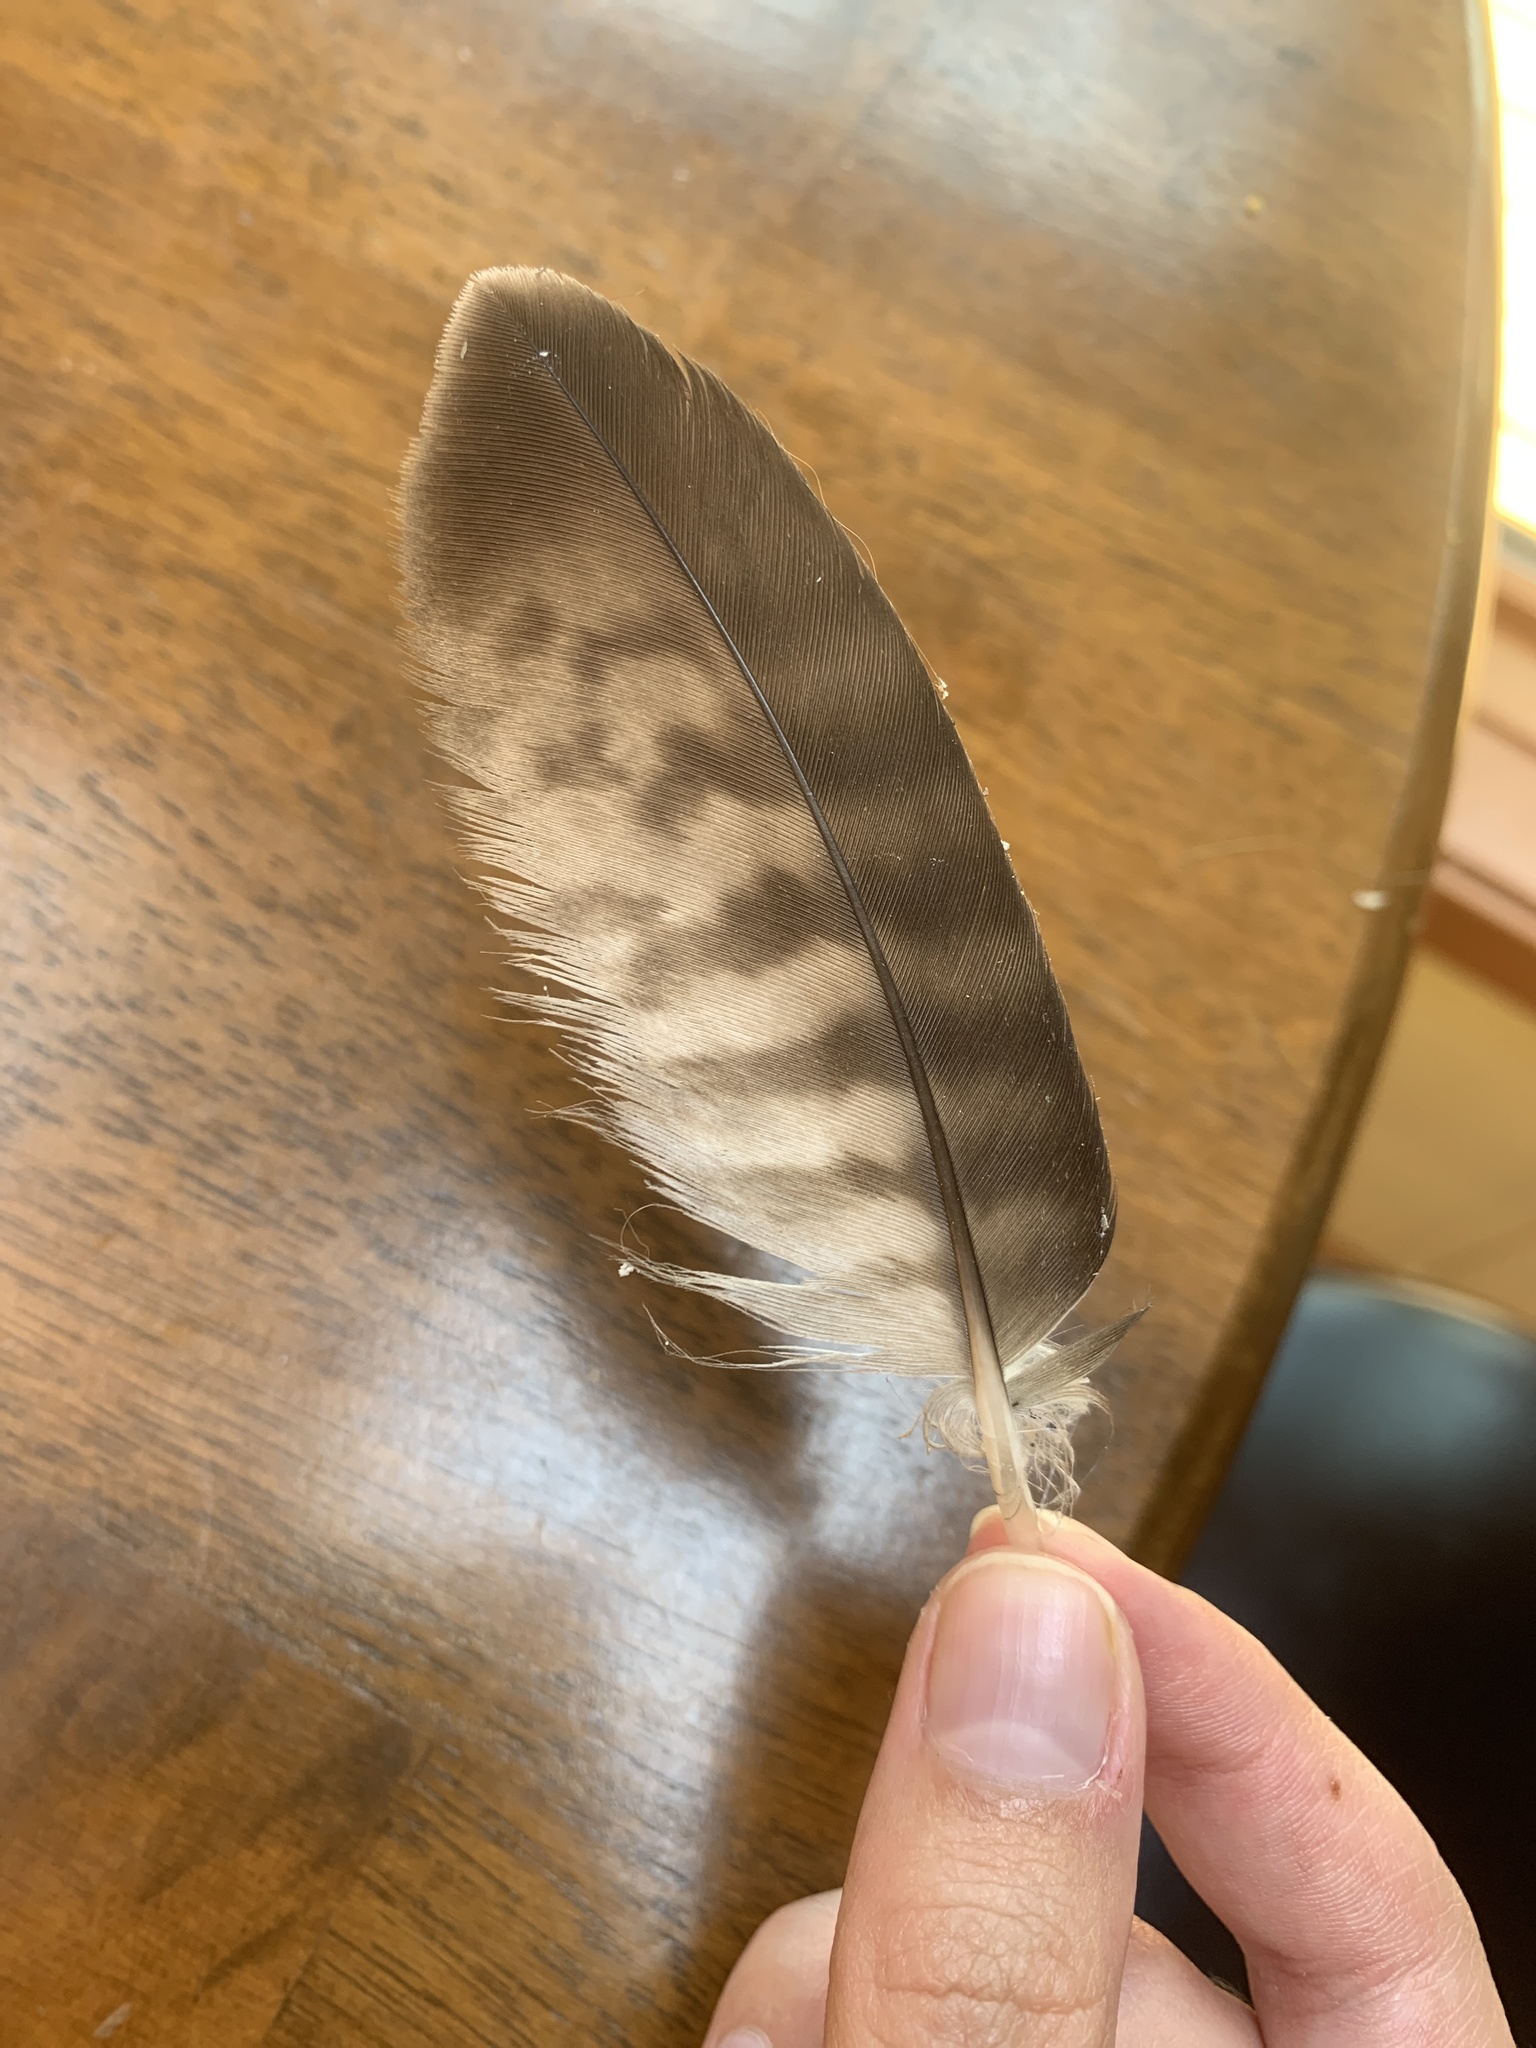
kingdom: Animalia
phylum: Chordata
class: Aves
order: Accipitriformes
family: Accipitridae
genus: Buteo
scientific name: Buteo jamaicensis
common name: Red-tailed hawk
